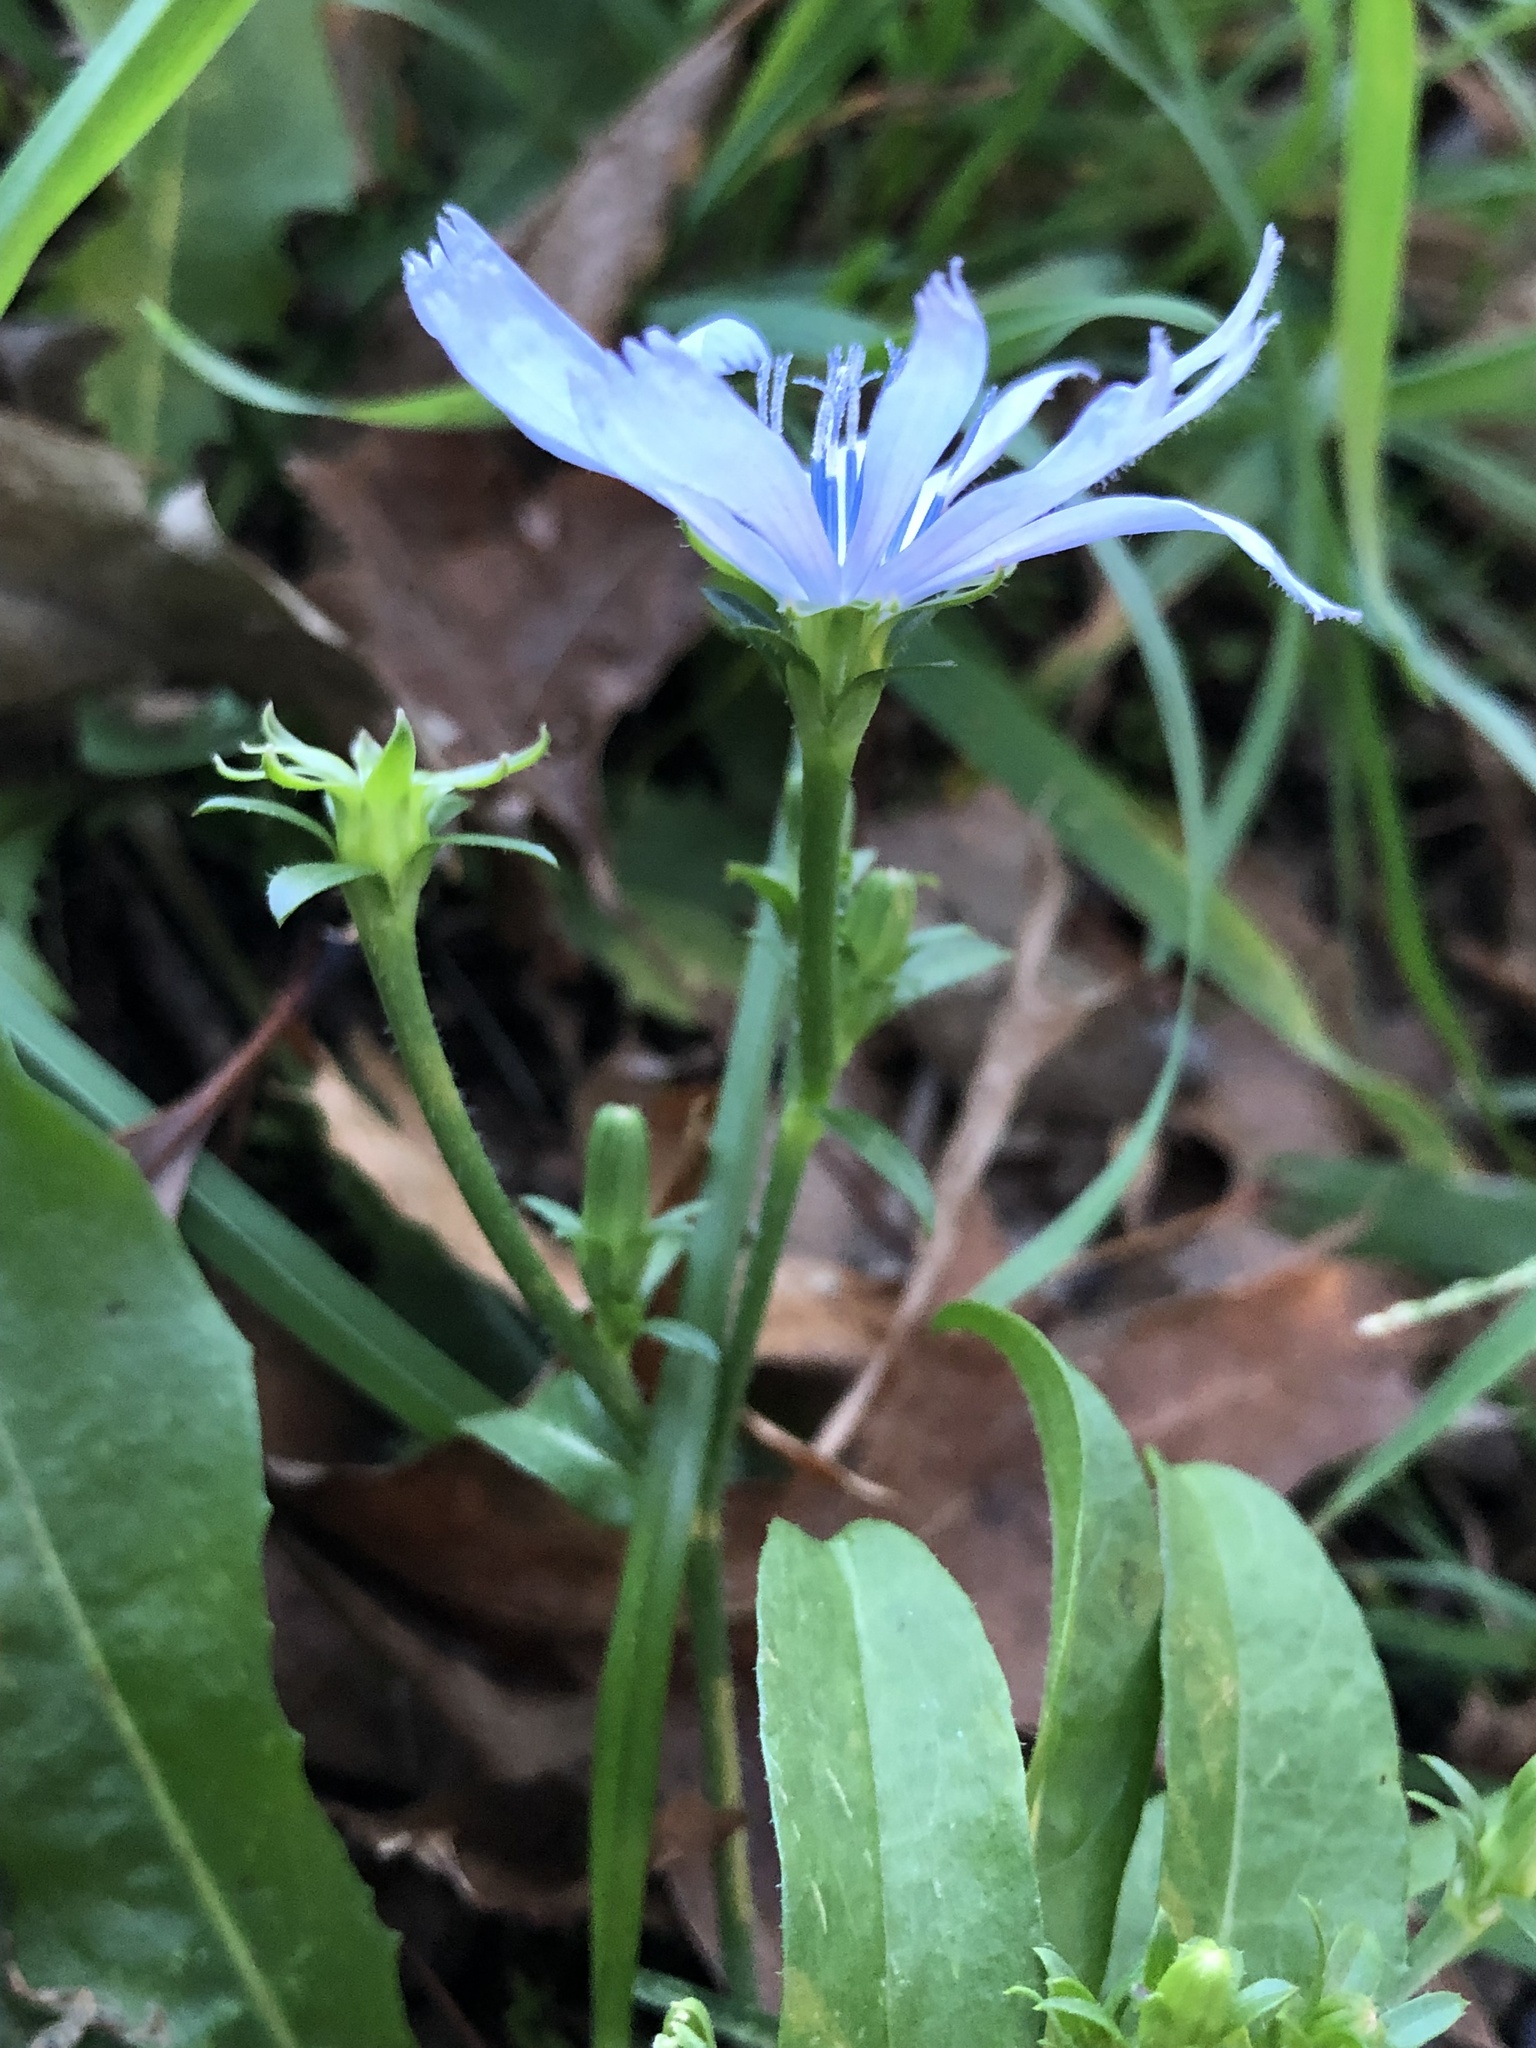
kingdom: Plantae
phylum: Tracheophyta
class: Magnoliopsida
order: Asterales
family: Asteraceae
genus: Cichorium
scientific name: Cichorium intybus
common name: Chicory
